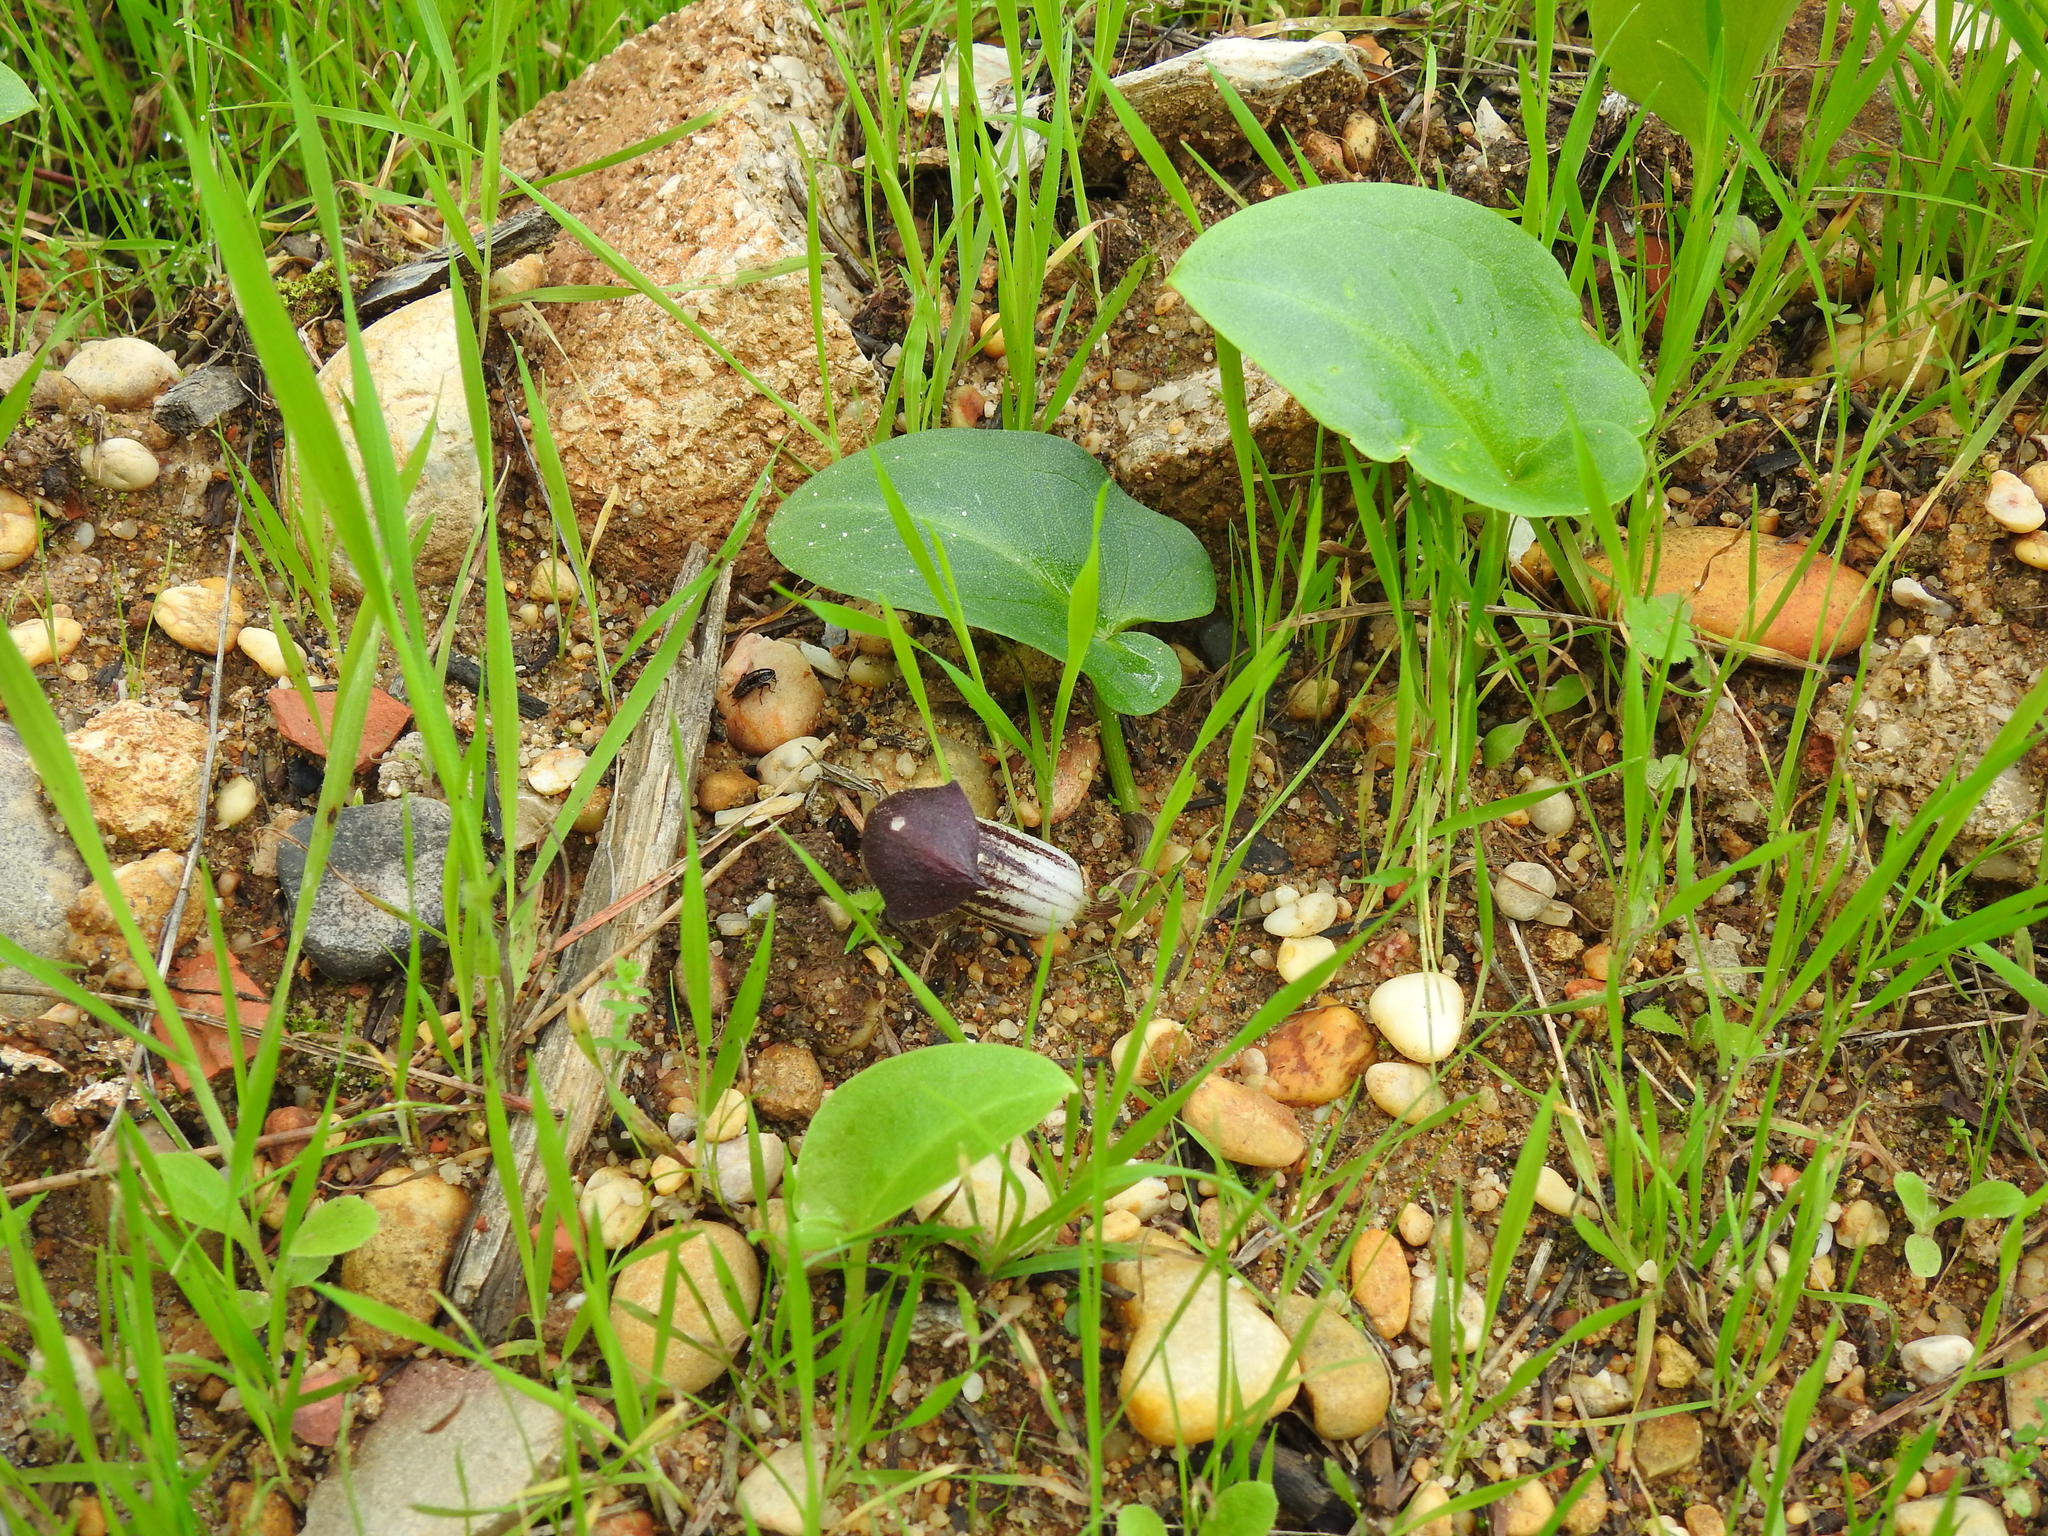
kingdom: Plantae
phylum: Tracheophyta
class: Liliopsida
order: Alismatales
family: Araceae
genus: Arisarum
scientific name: Arisarum simorrhinum
